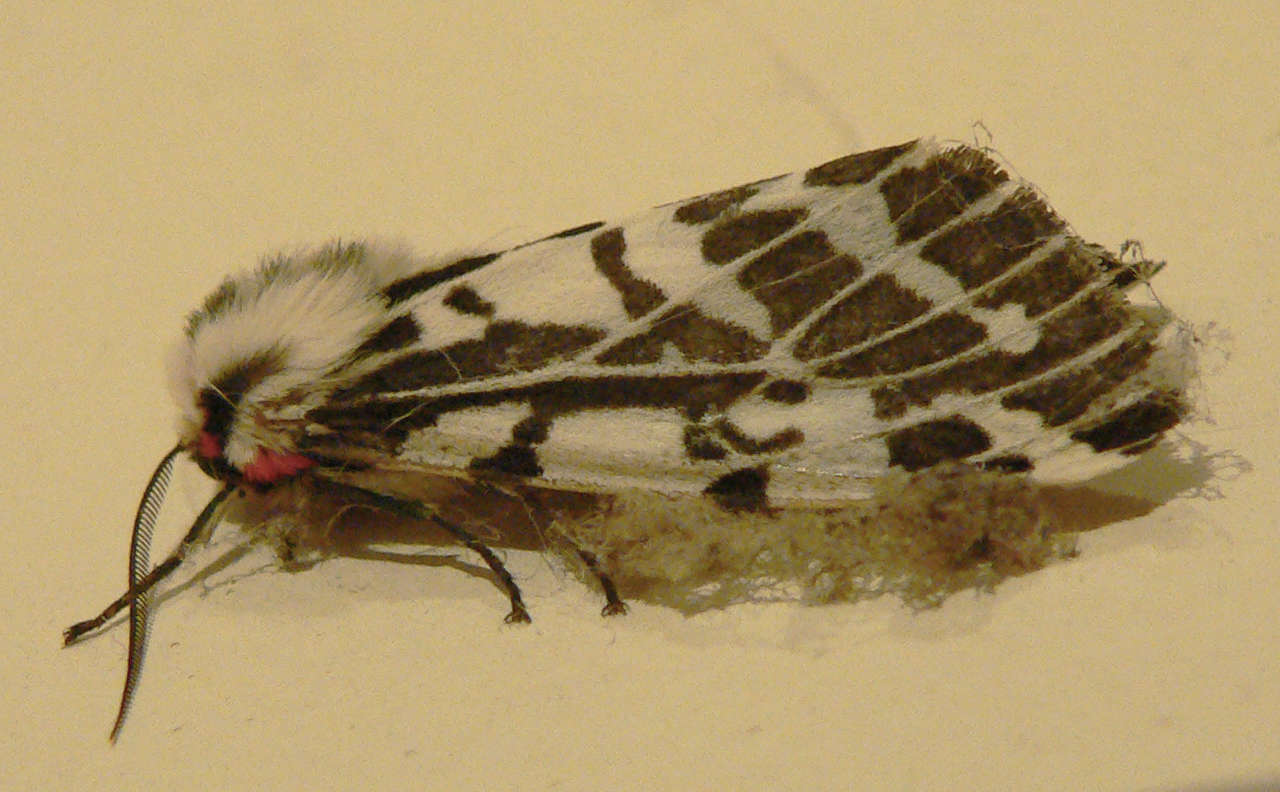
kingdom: Animalia
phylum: Arthropoda
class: Insecta
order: Lepidoptera
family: Erebidae
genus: Ardices
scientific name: Ardices glatignyi
